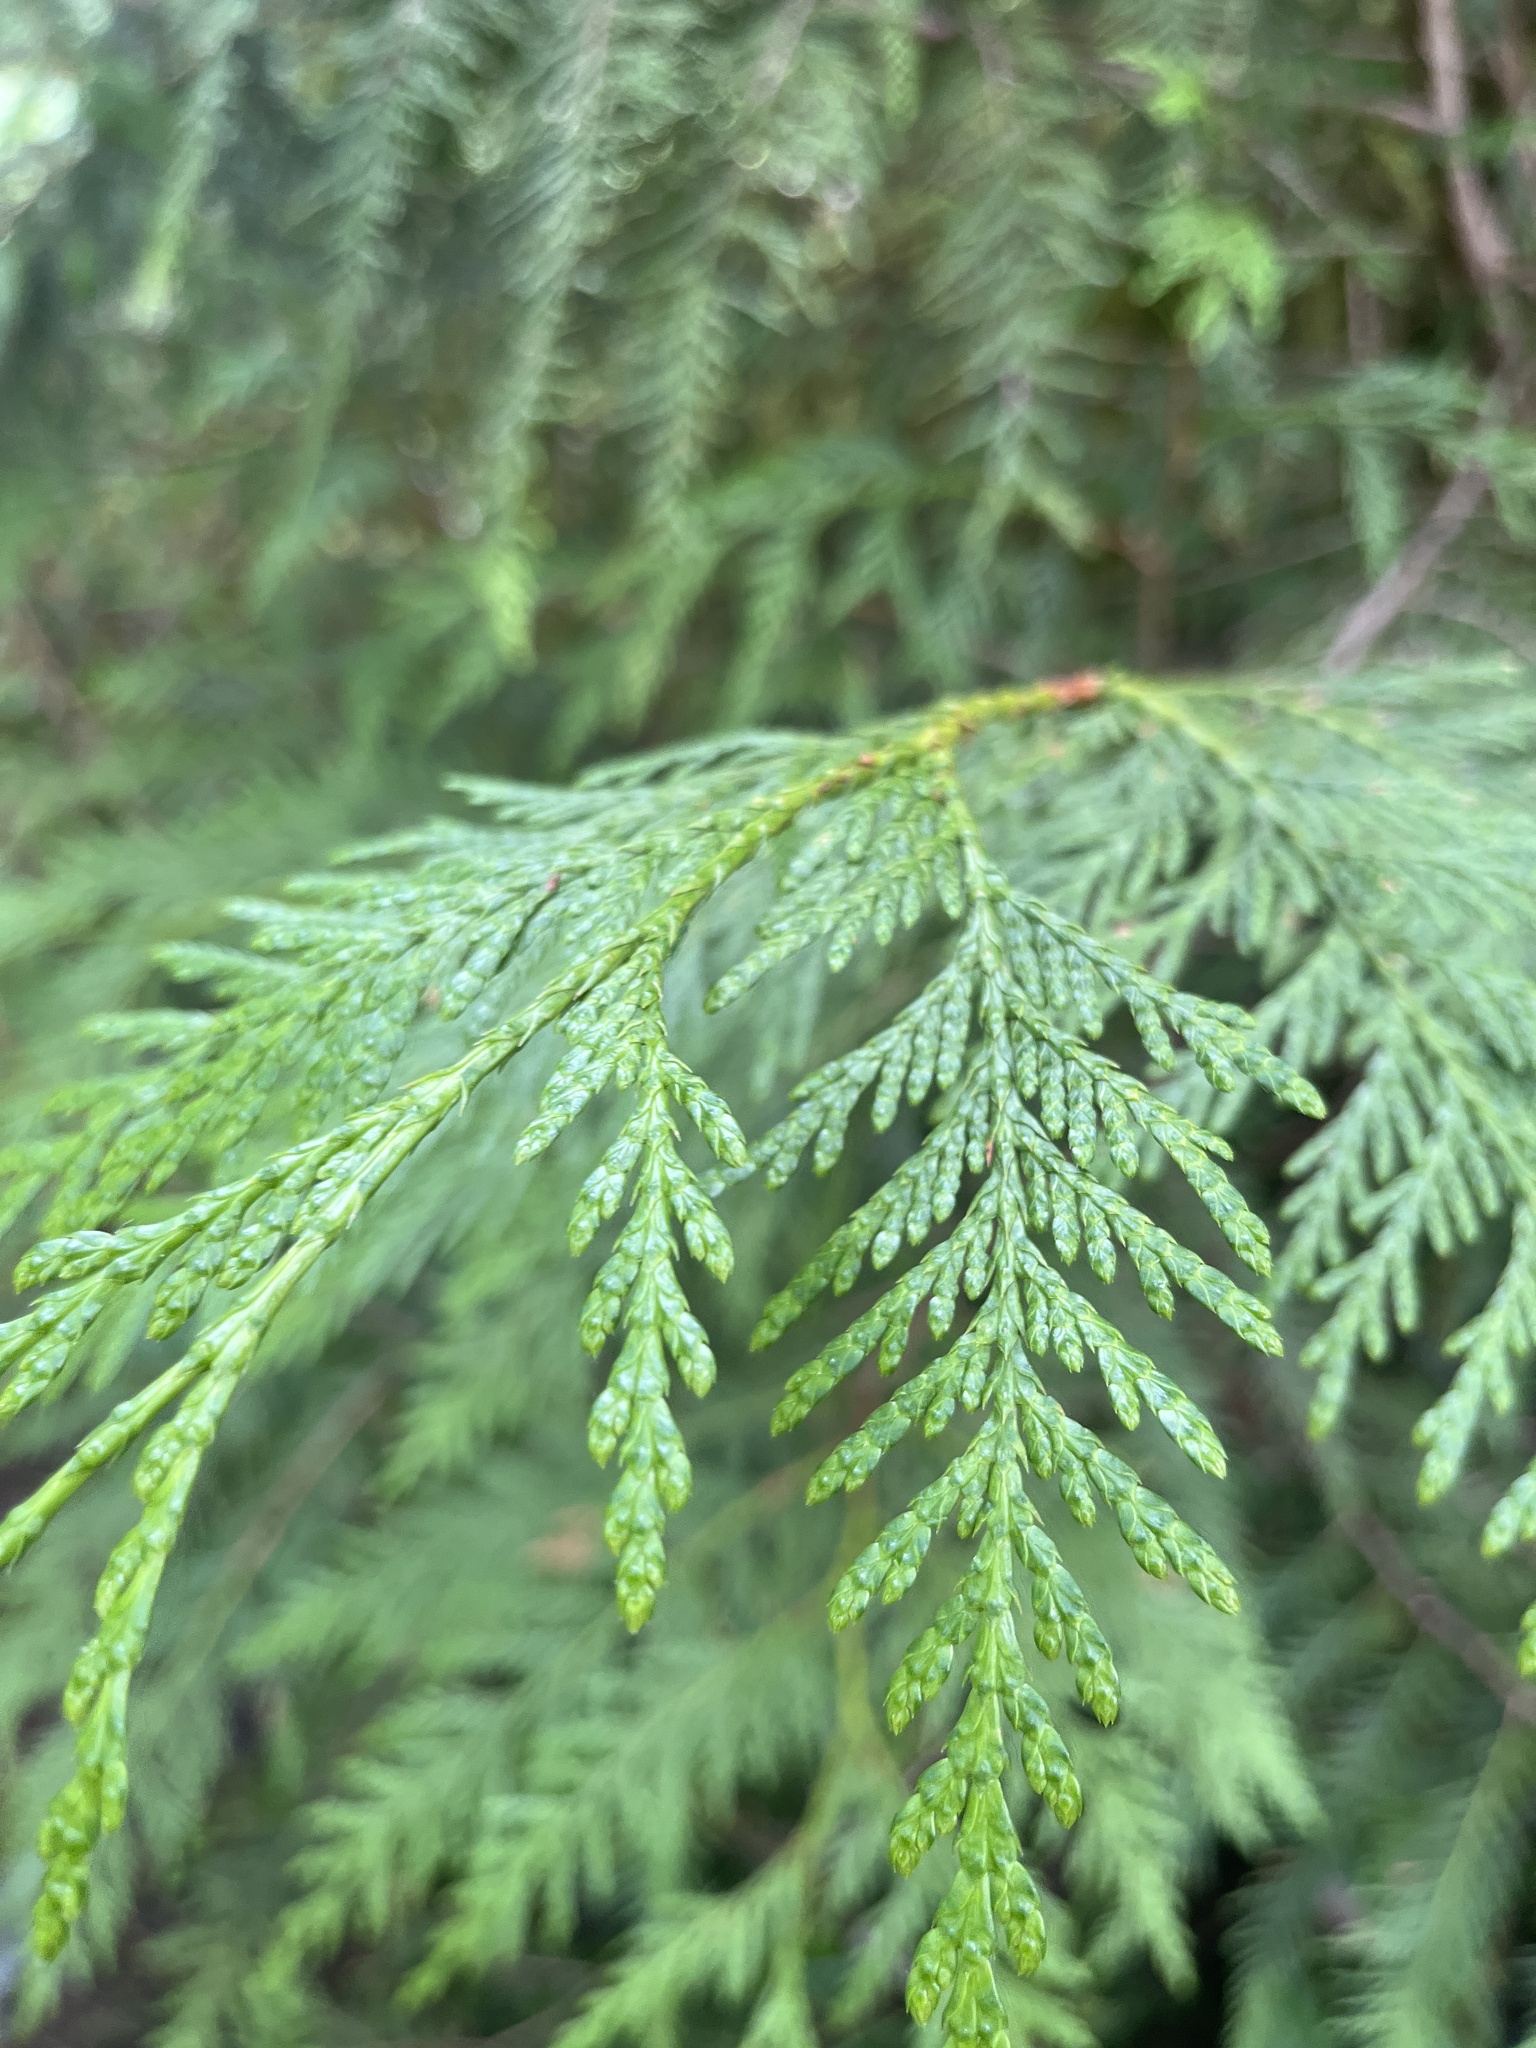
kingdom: Plantae
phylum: Tracheophyta
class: Pinopsida
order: Pinales
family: Cupressaceae
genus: Thuja
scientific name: Thuja plicata
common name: Western red-cedar
